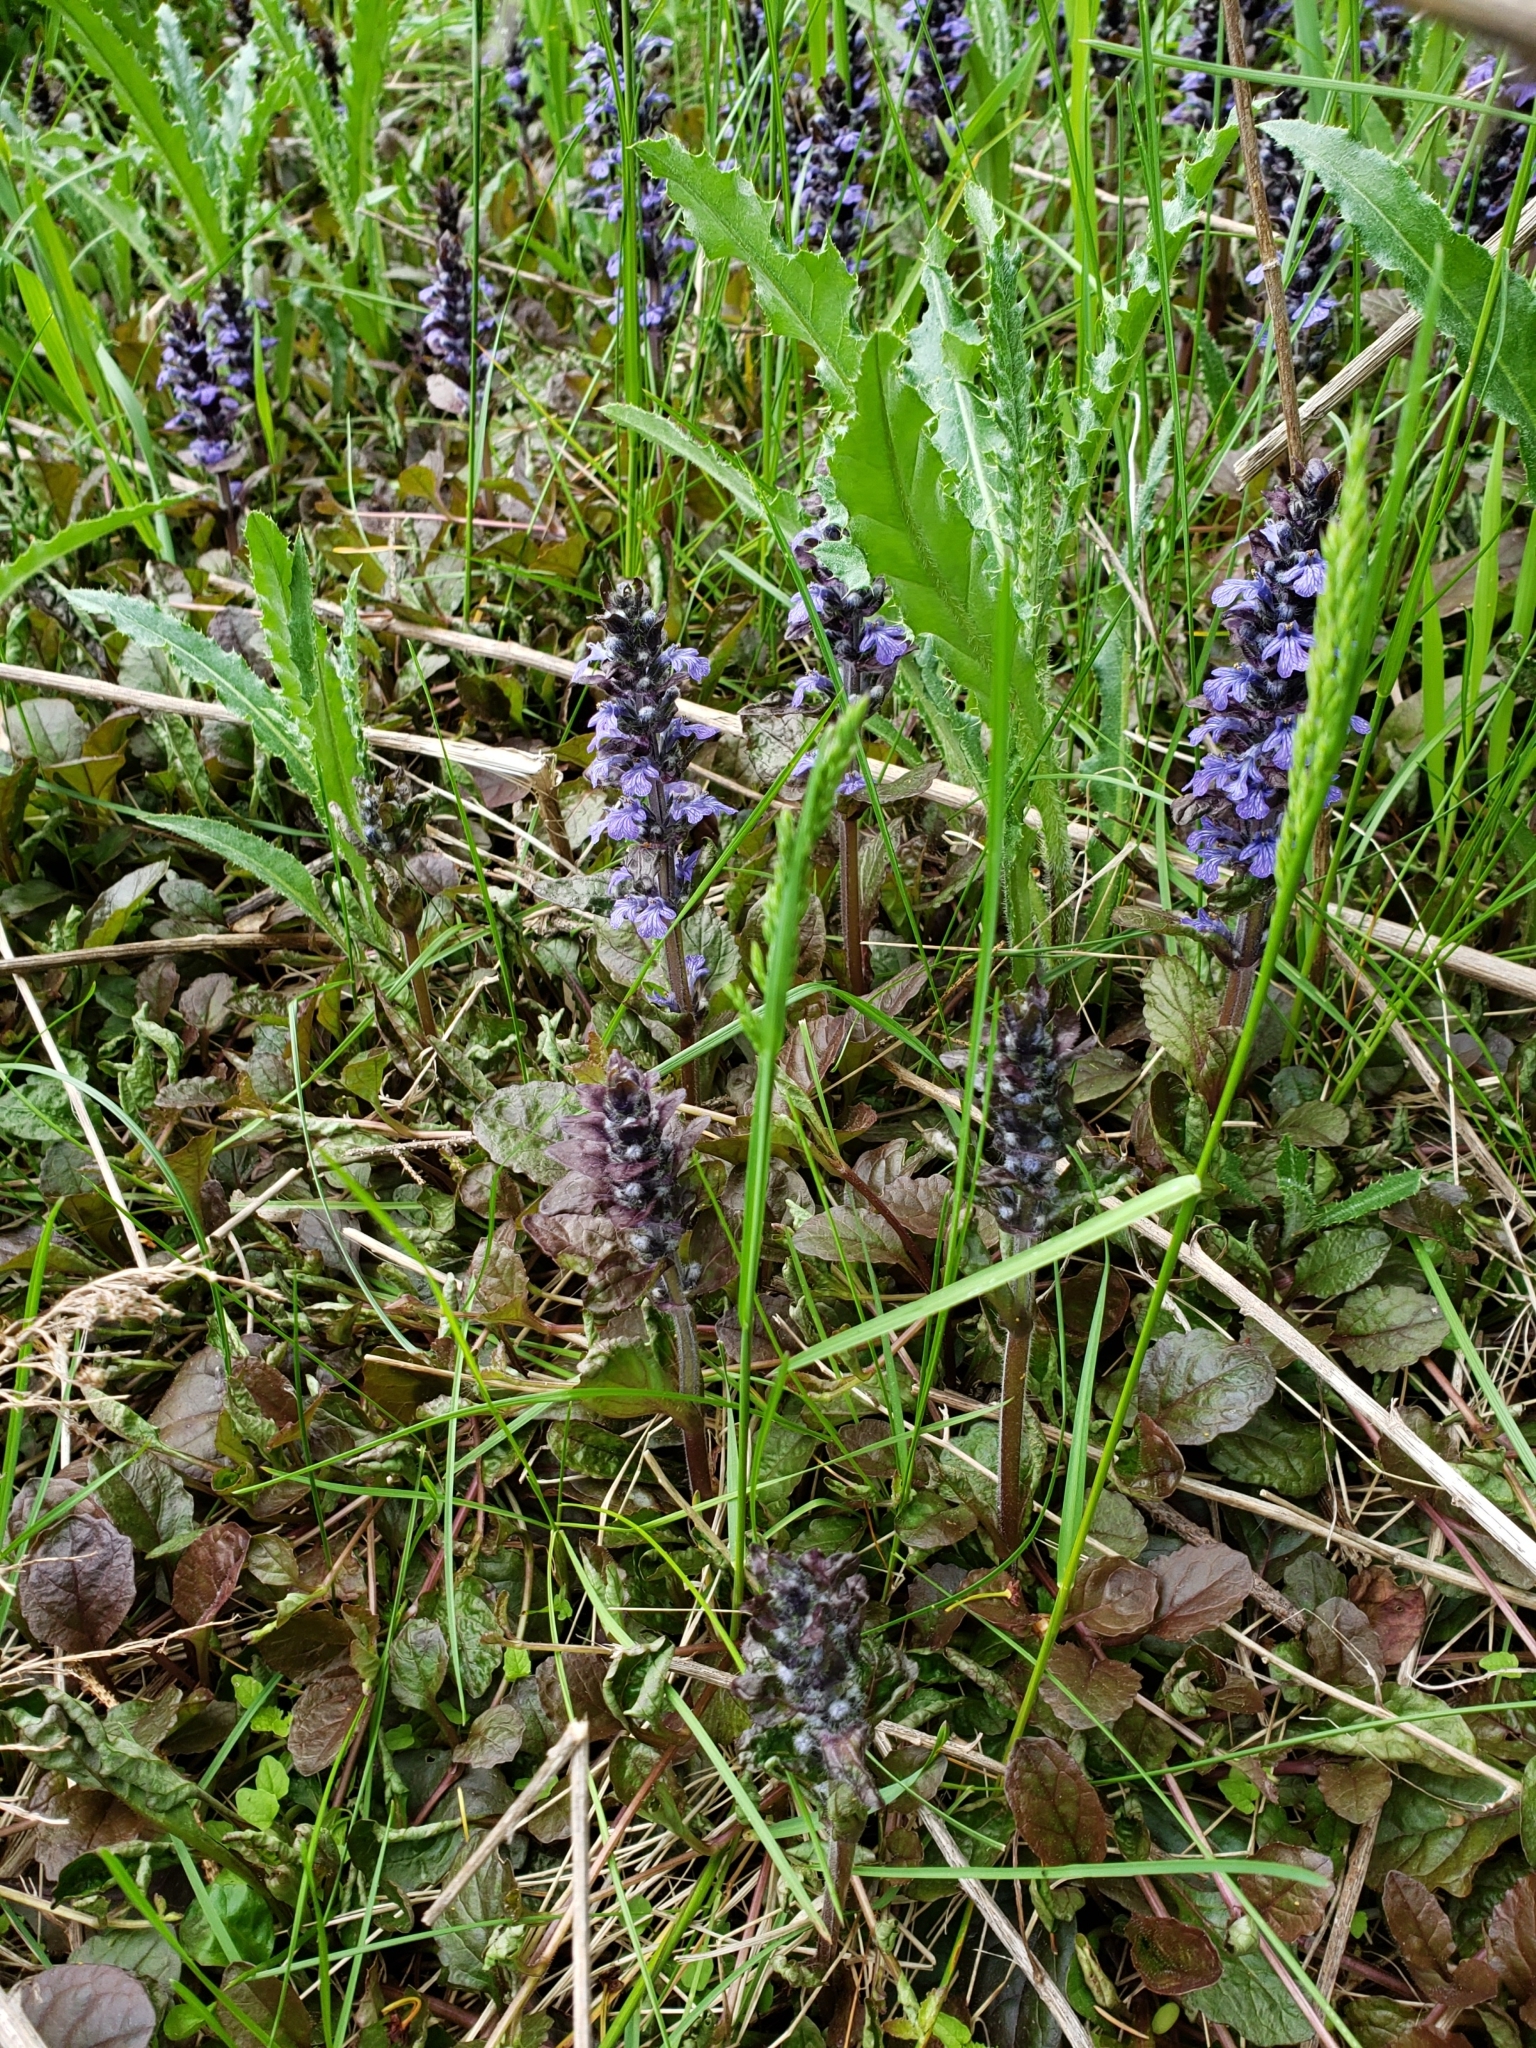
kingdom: Plantae
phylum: Tracheophyta
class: Magnoliopsida
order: Lamiales
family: Lamiaceae
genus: Ajuga
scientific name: Ajuga reptans
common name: Bugle
